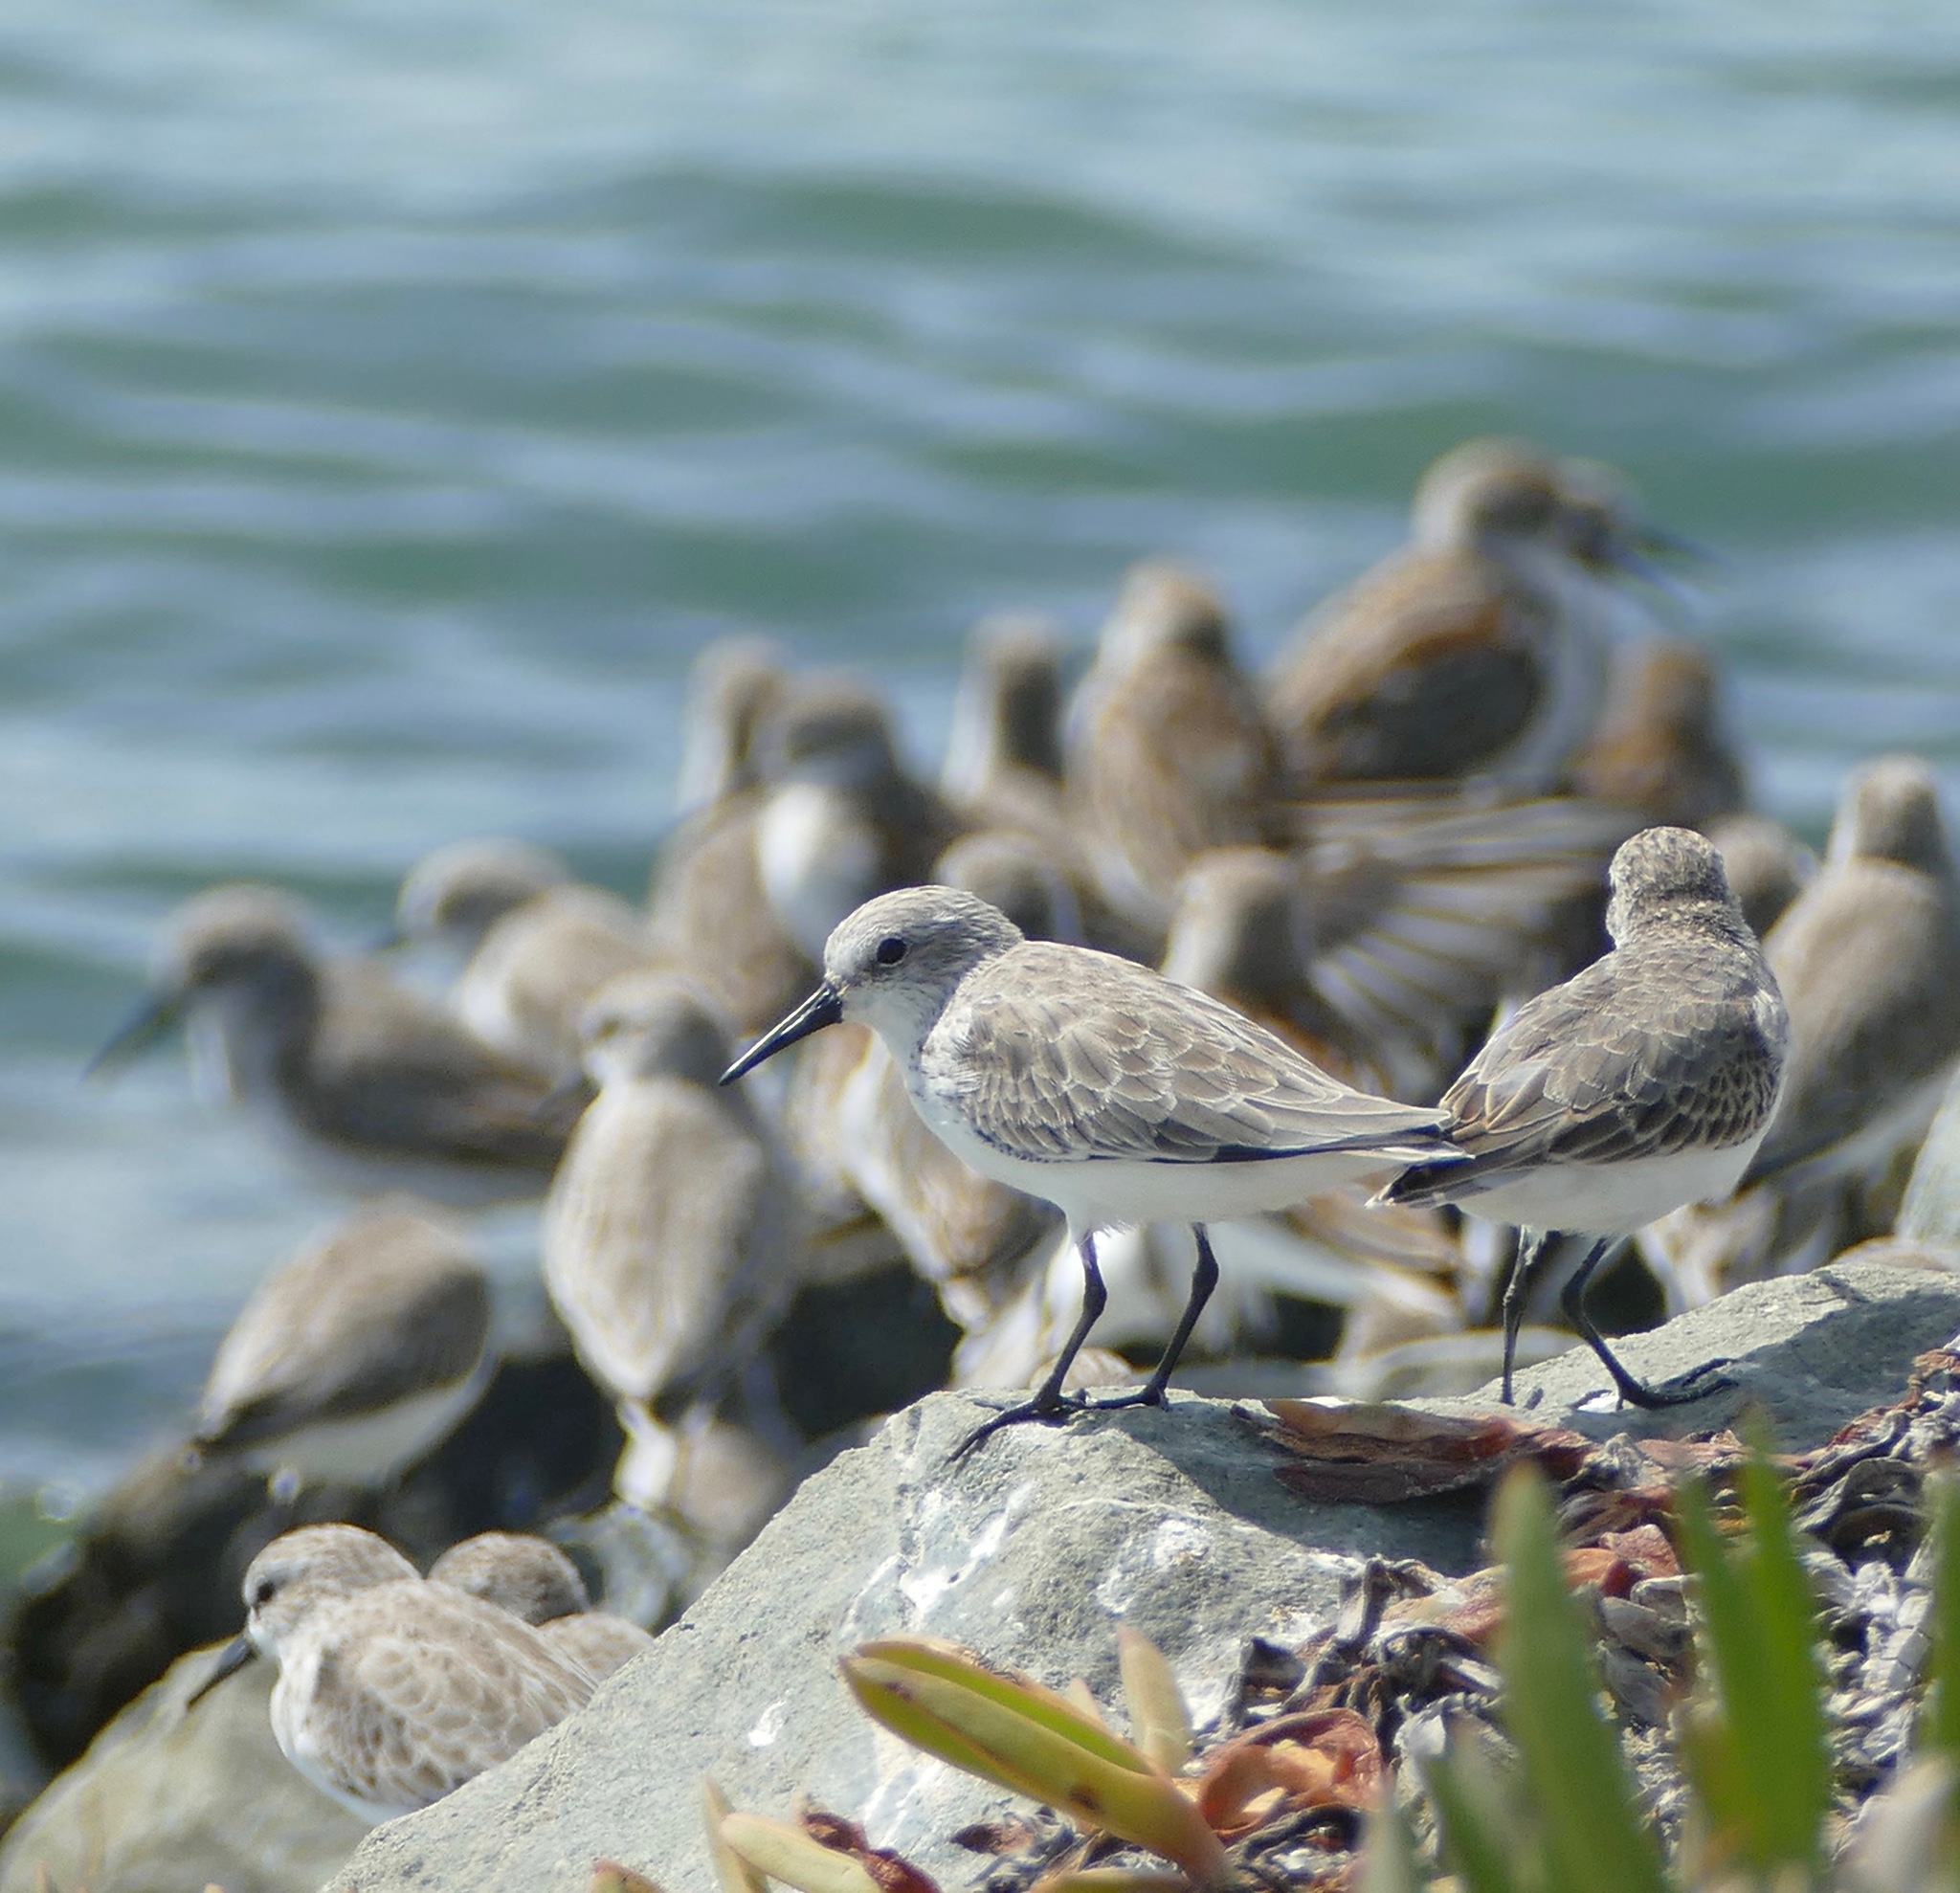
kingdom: Animalia
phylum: Chordata
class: Aves
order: Charadriiformes
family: Scolopacidae
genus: Calidris
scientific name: Calidris mauri
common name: Western sandpiper
